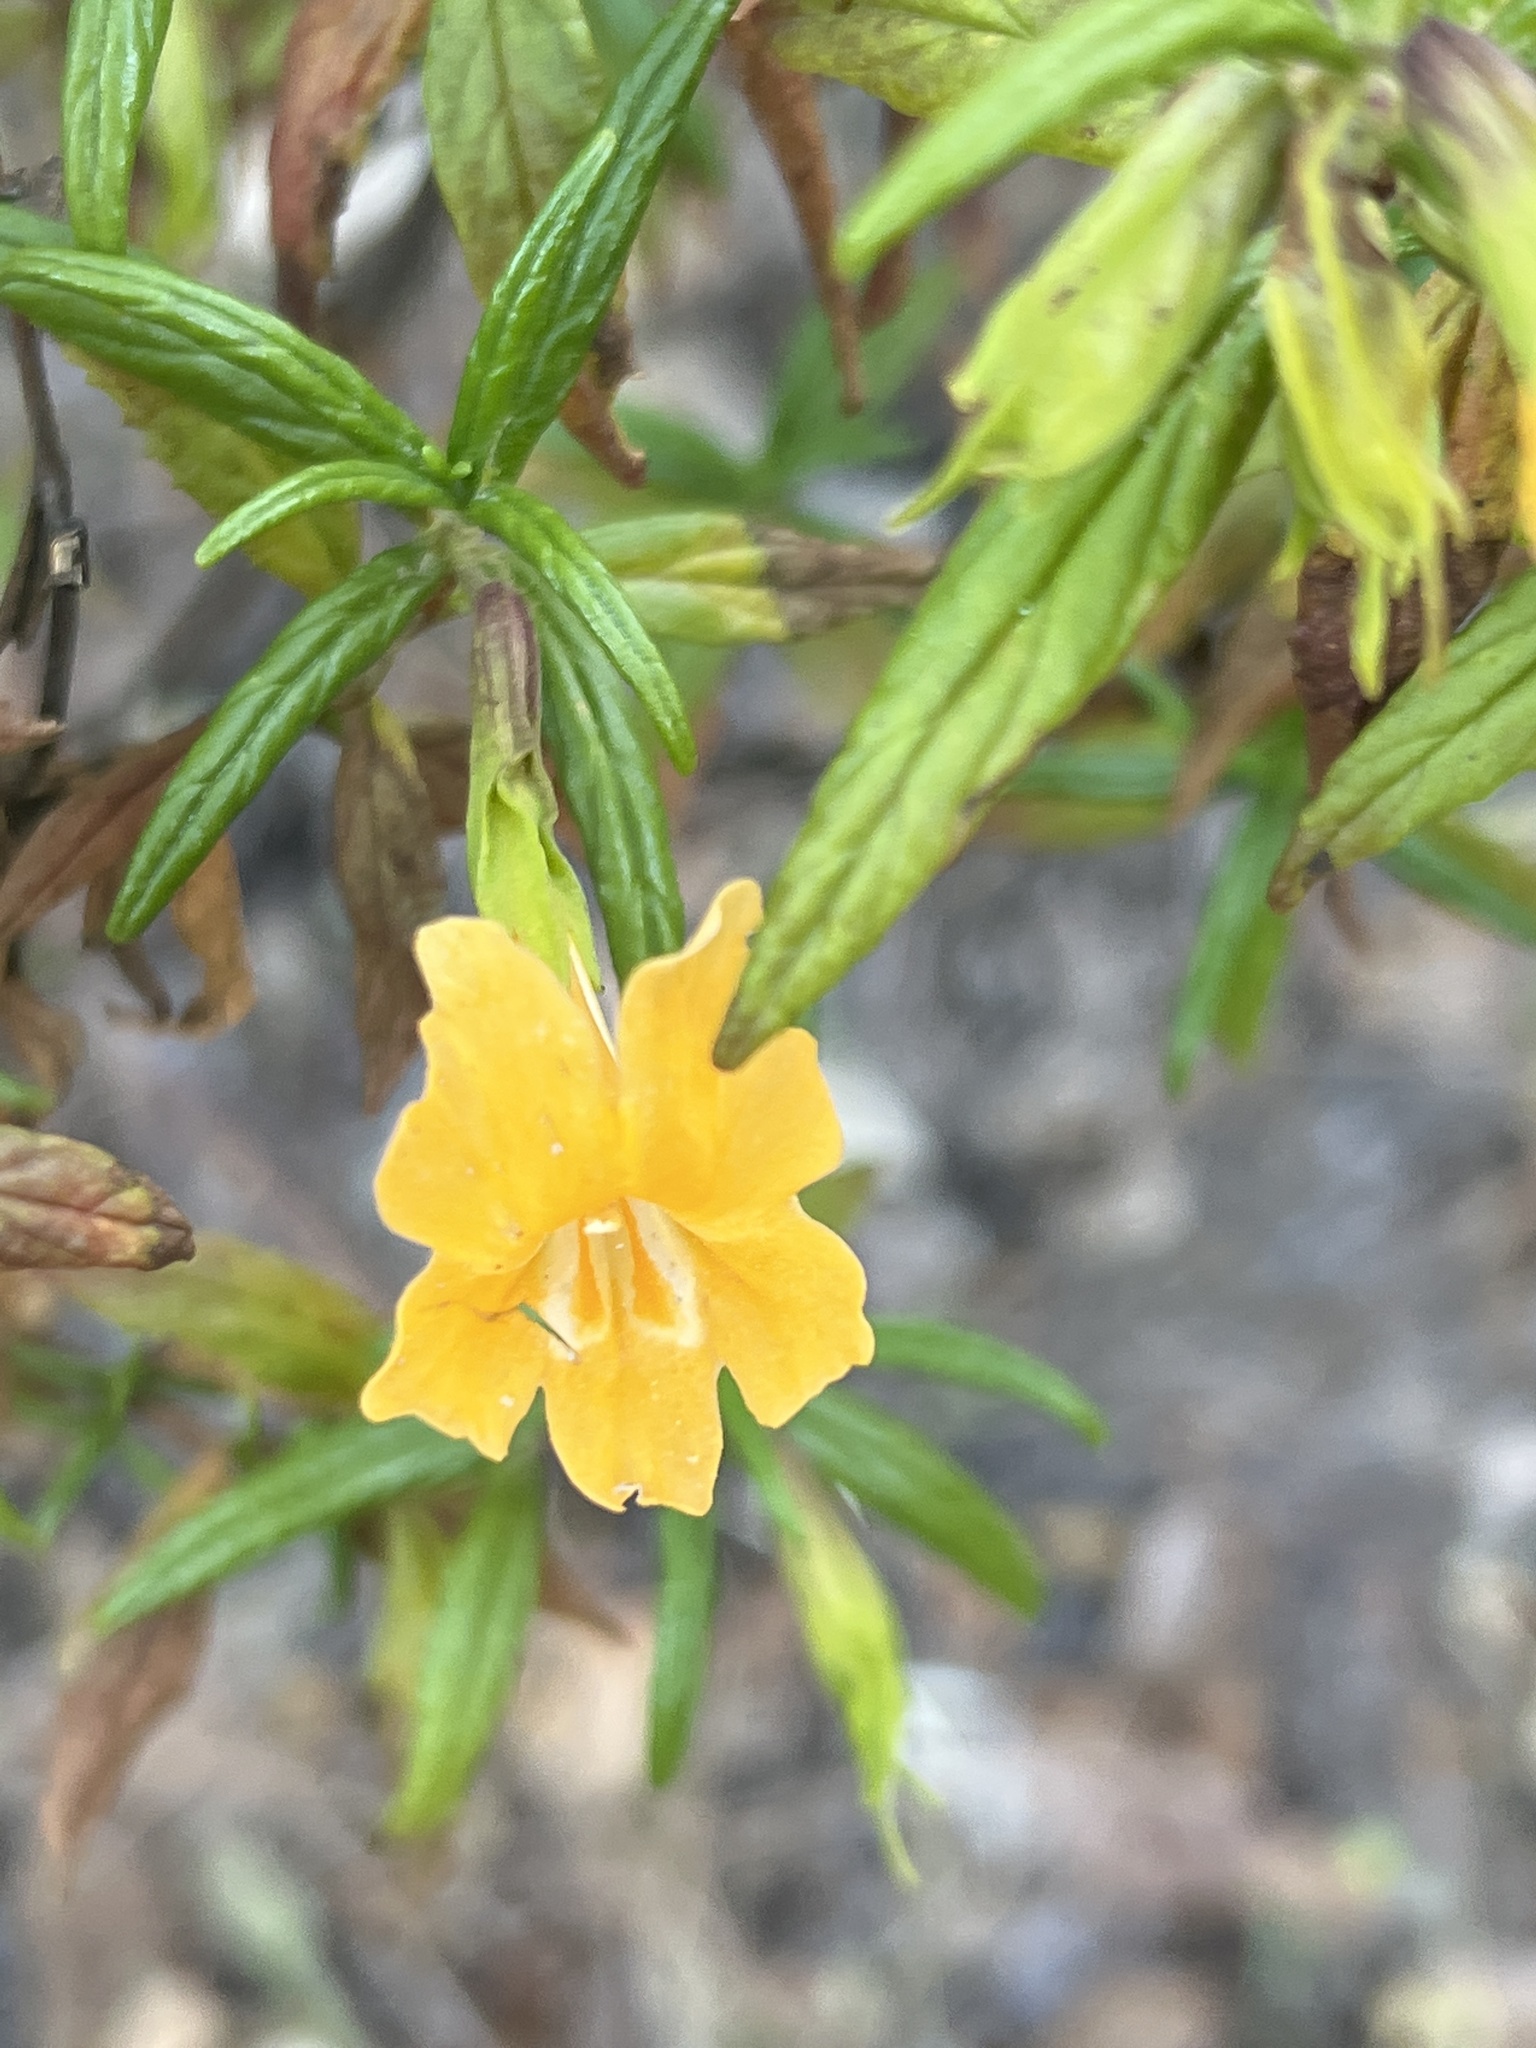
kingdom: Plantae
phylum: Tracheophyta
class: Magnoliopsida
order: Lamiales
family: Phrymaceae
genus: Diplacus
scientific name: Diplacus aurantiacus
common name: Bush monkey-flower
